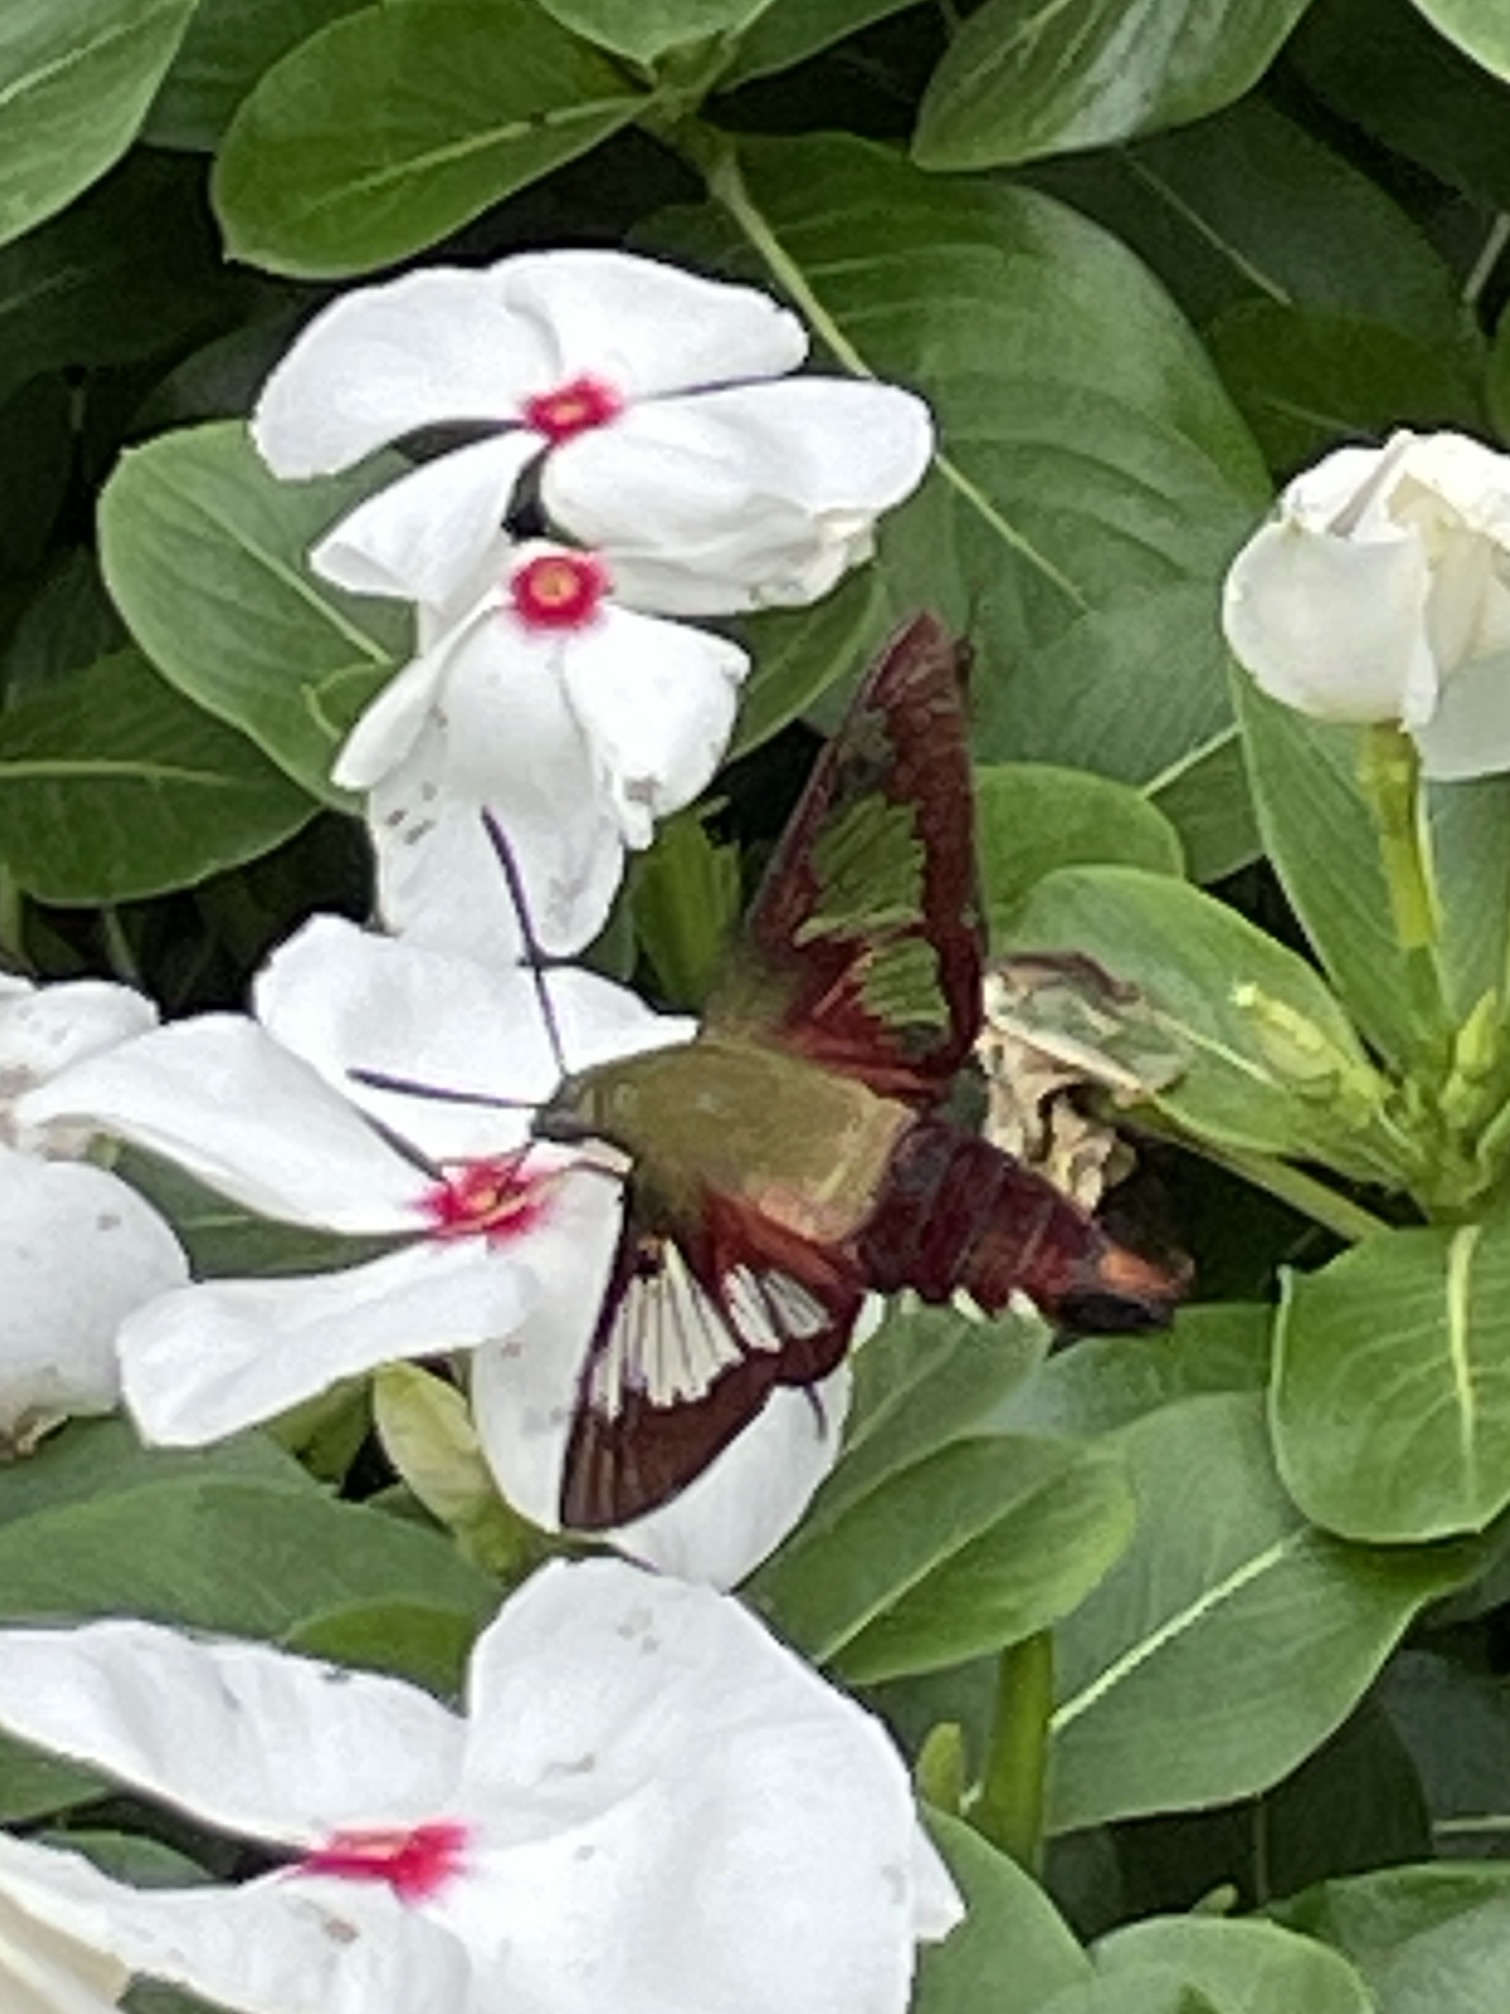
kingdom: Animalia
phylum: Arthropoda
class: Insecta
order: Lepidoptera
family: Sphingidae
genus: Hemaris
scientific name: Hemaris thysbe
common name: Common clear-wing
